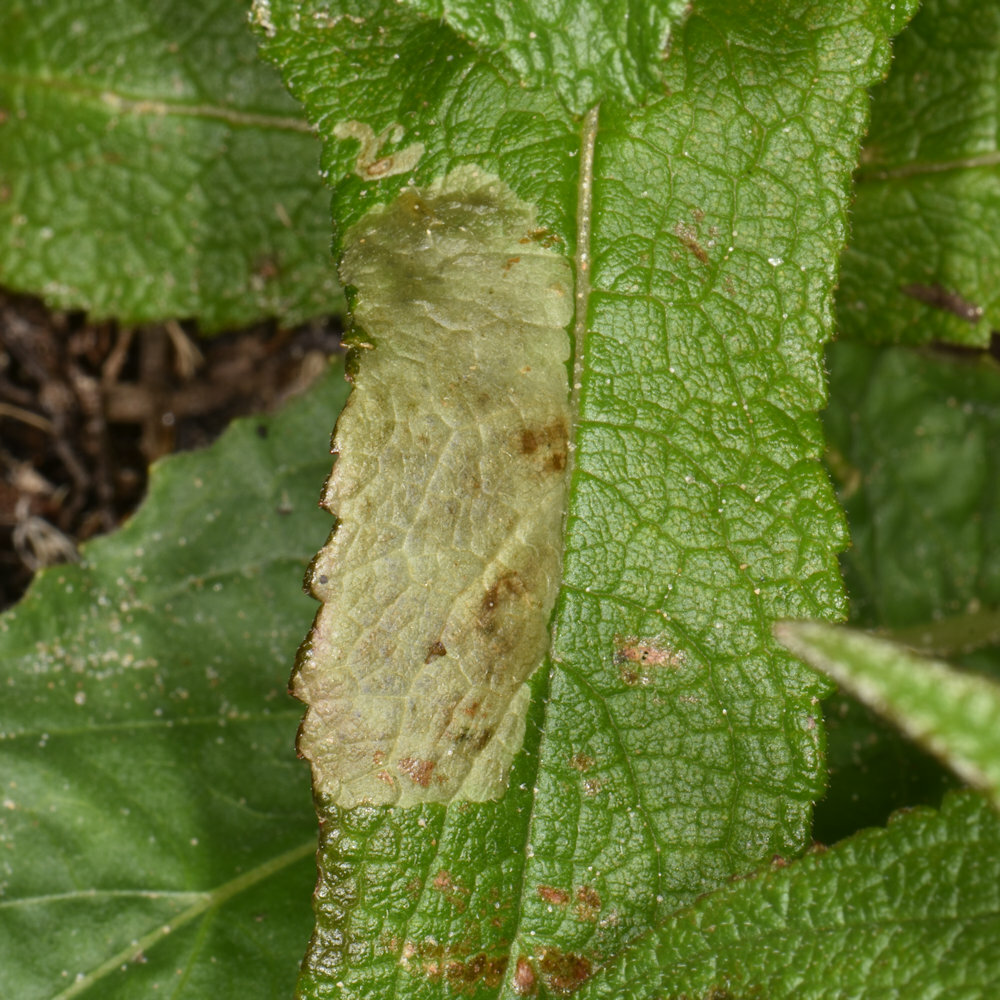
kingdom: Animalia
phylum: Arthropoda
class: Insecta
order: Diptera
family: Agromyzidae
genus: Calycomyza
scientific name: Calycomyza flavinotum
